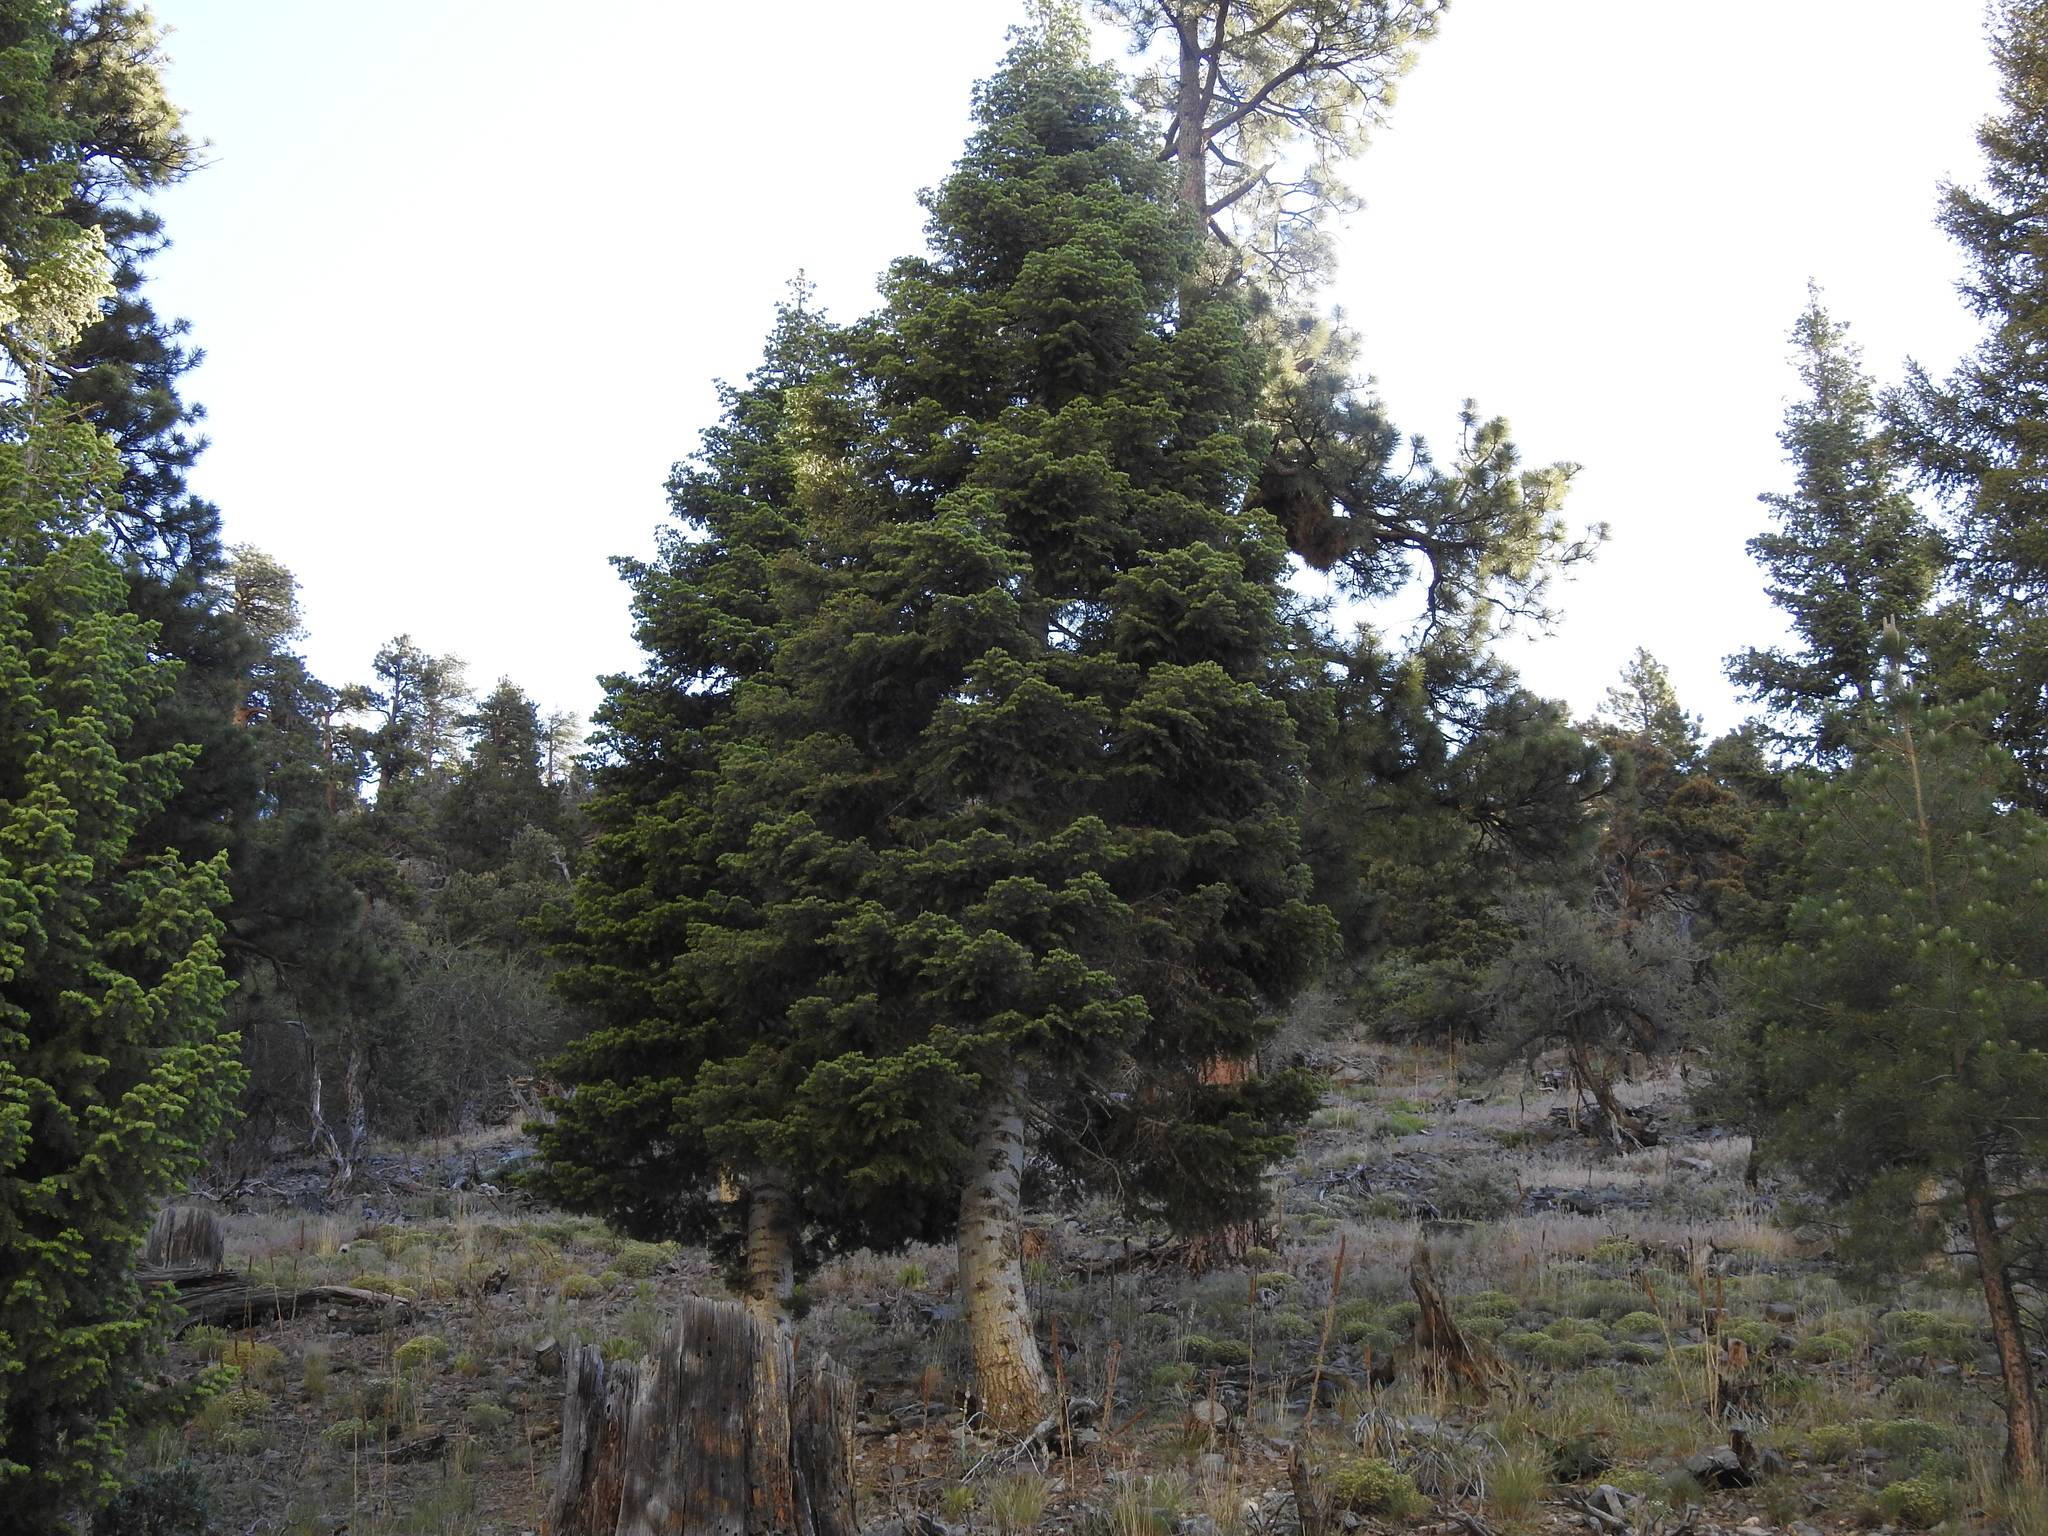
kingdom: Plantae
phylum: Tracheophyta
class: Pinopsida
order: Pinales
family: Pinaceae
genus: Abies
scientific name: Abies concolor
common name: Colorado fir
